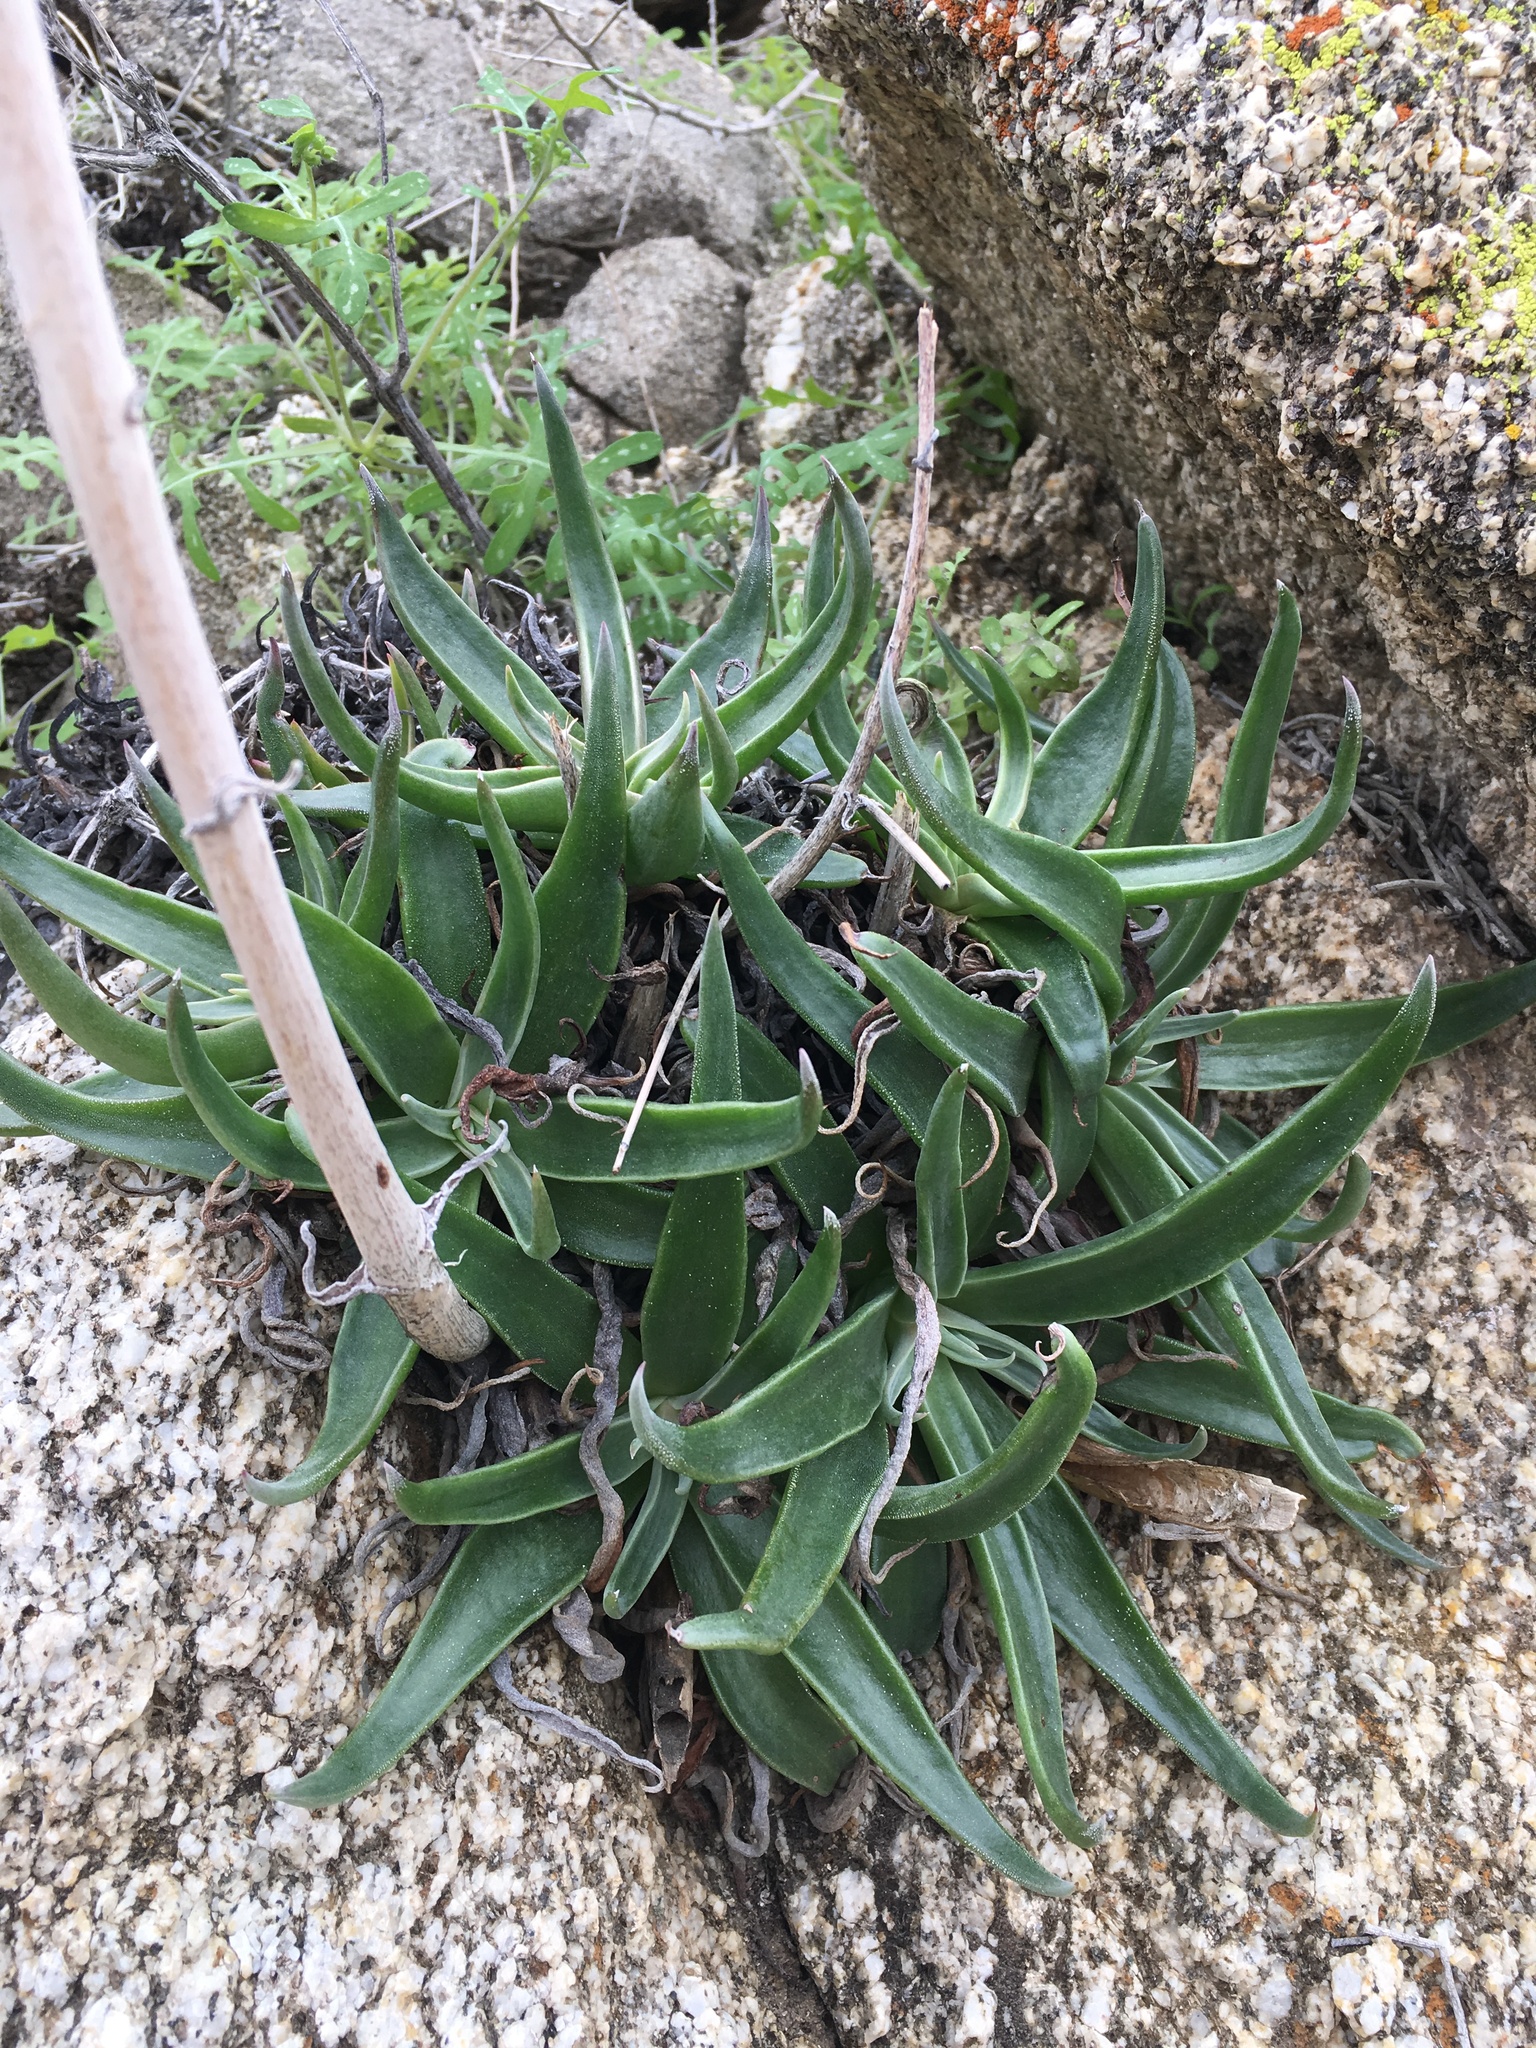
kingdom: Plantae
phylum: Tracheophyta
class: Magnoliopsida
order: Saxifragales
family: Crassulaceae
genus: Dudleya
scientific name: Dudleya saxosa
